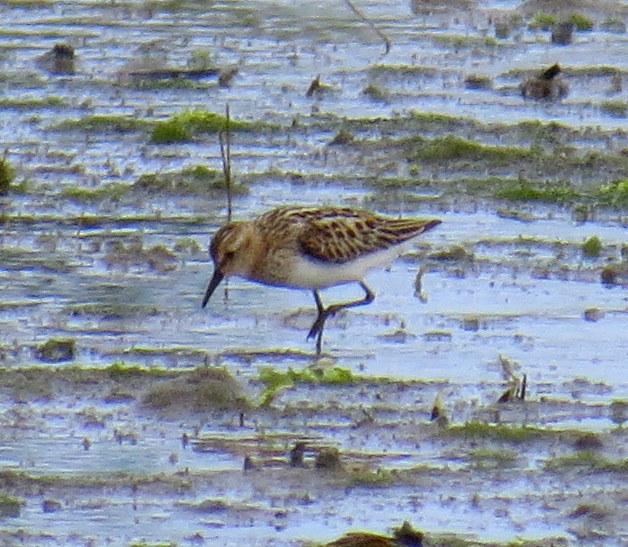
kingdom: Animalia
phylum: Chordata
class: Aves
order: Charadriiformes
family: Scolopacidae
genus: Calidris
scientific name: Calidris minuta
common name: Little stint
